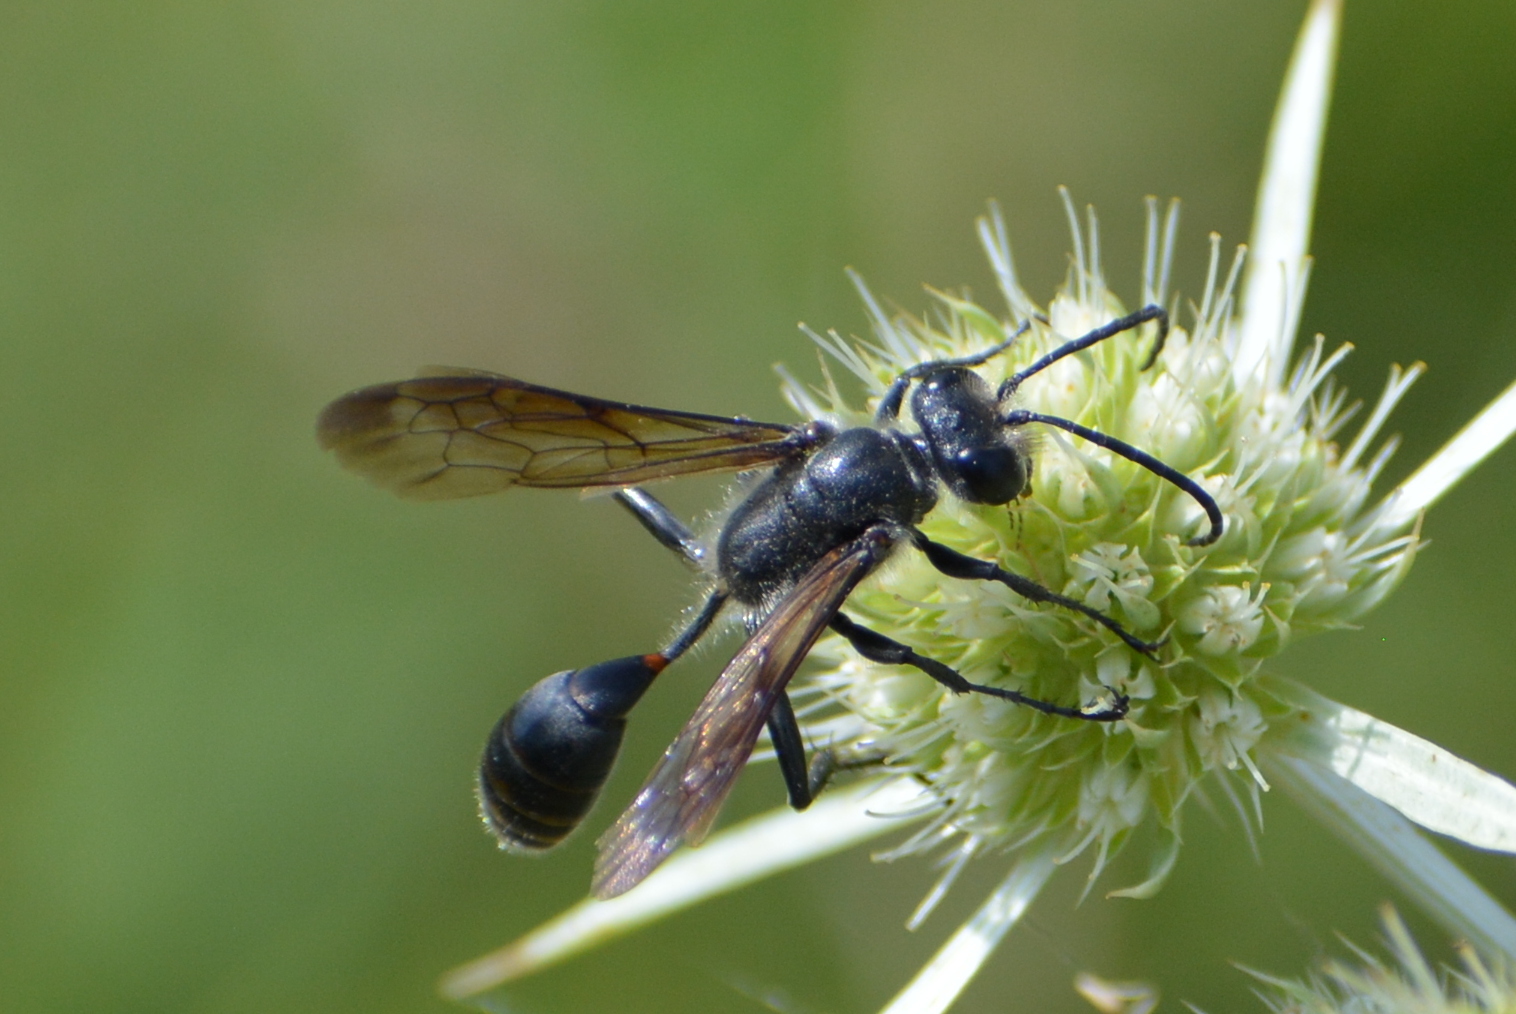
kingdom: Animalia
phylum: Arthropoda
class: Insecta
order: Hymenoptera
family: Sphecidae
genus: Isodontia
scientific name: Isodontia mexicana
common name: Mud dauber
